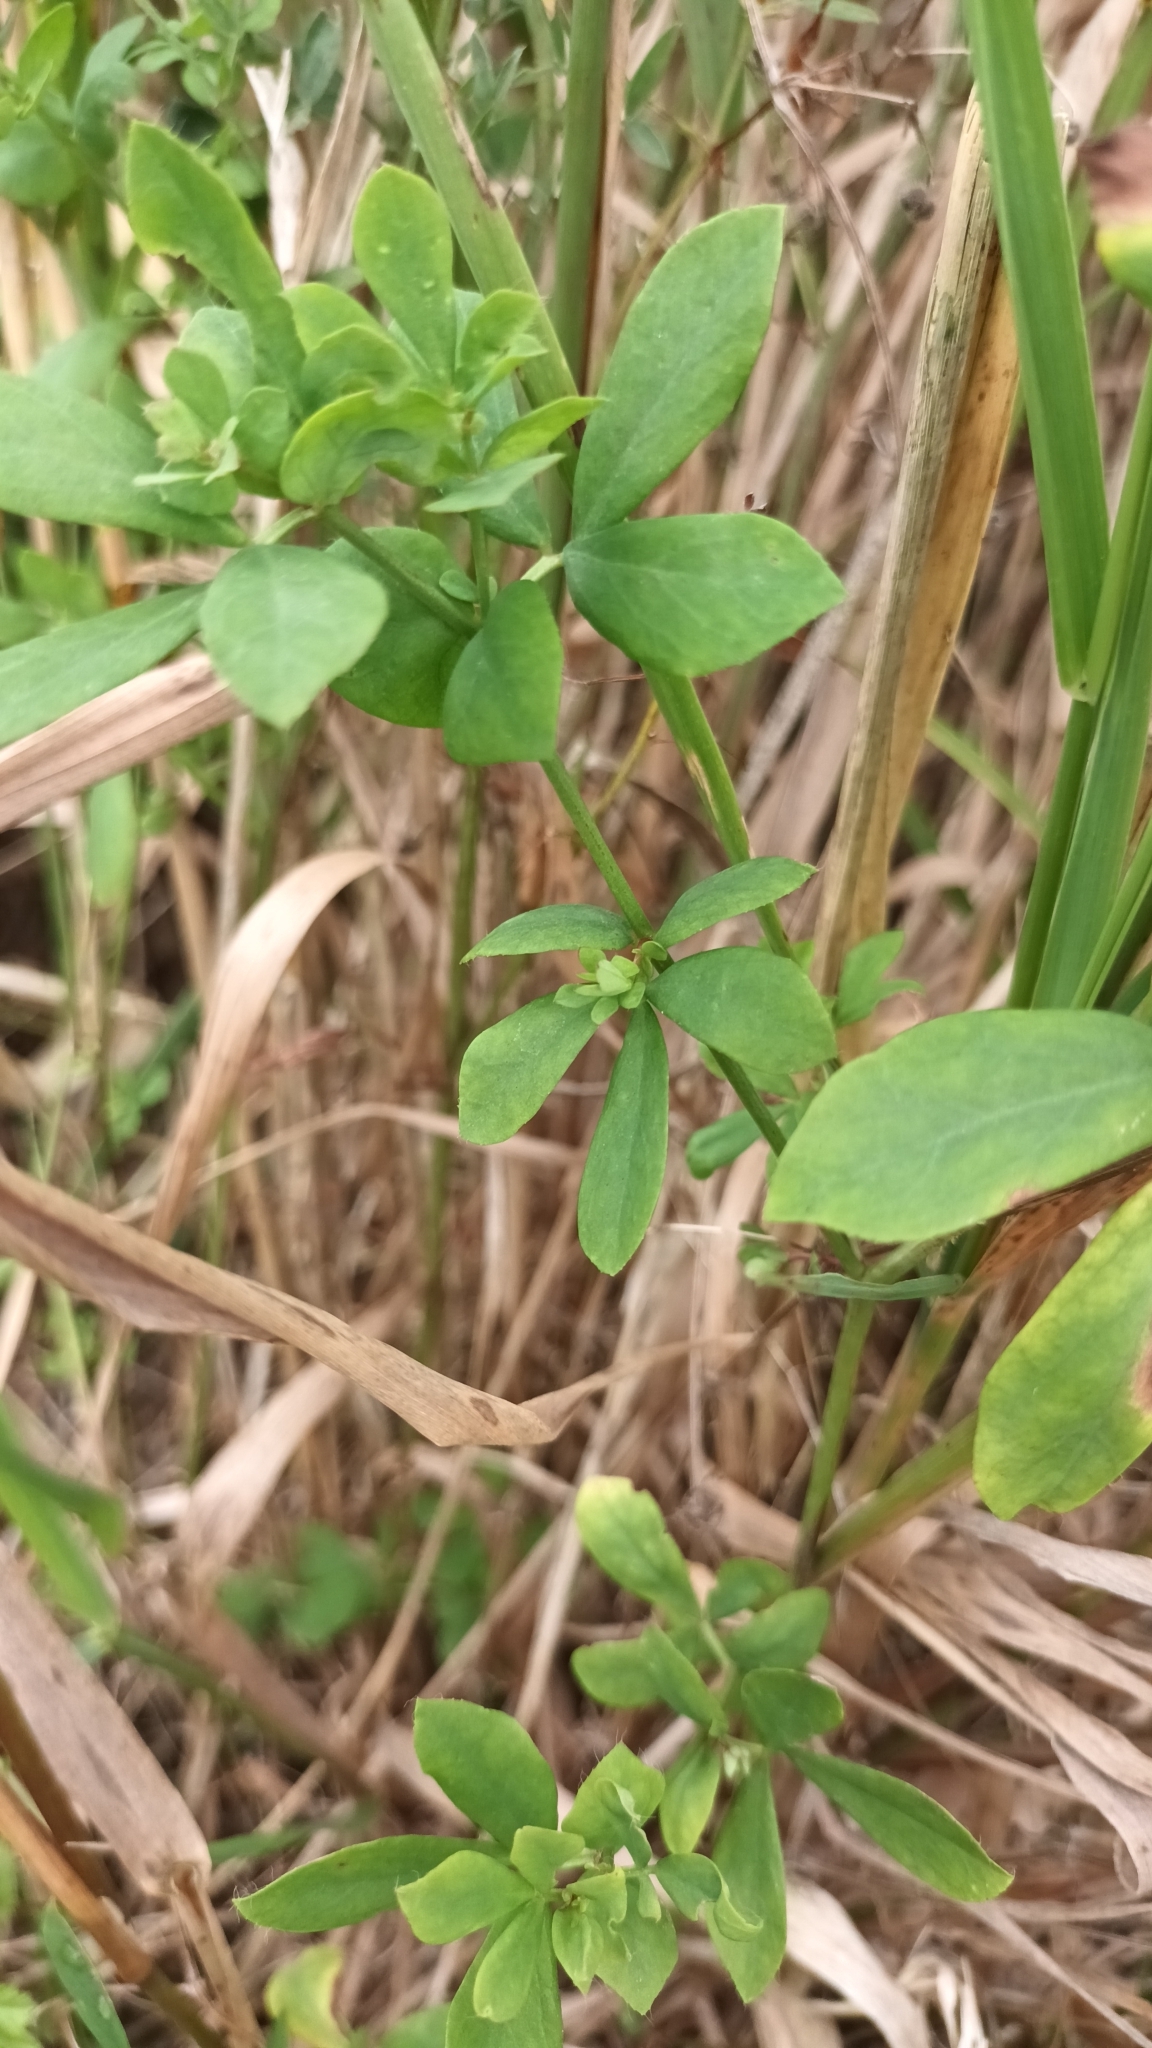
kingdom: Plantae
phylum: Tracheophyta
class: Magnoliopsida
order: Fabales
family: Fabaceae
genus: Lotus
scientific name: Lotus pedunculatus
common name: Greater birdsfoot-trefoil
